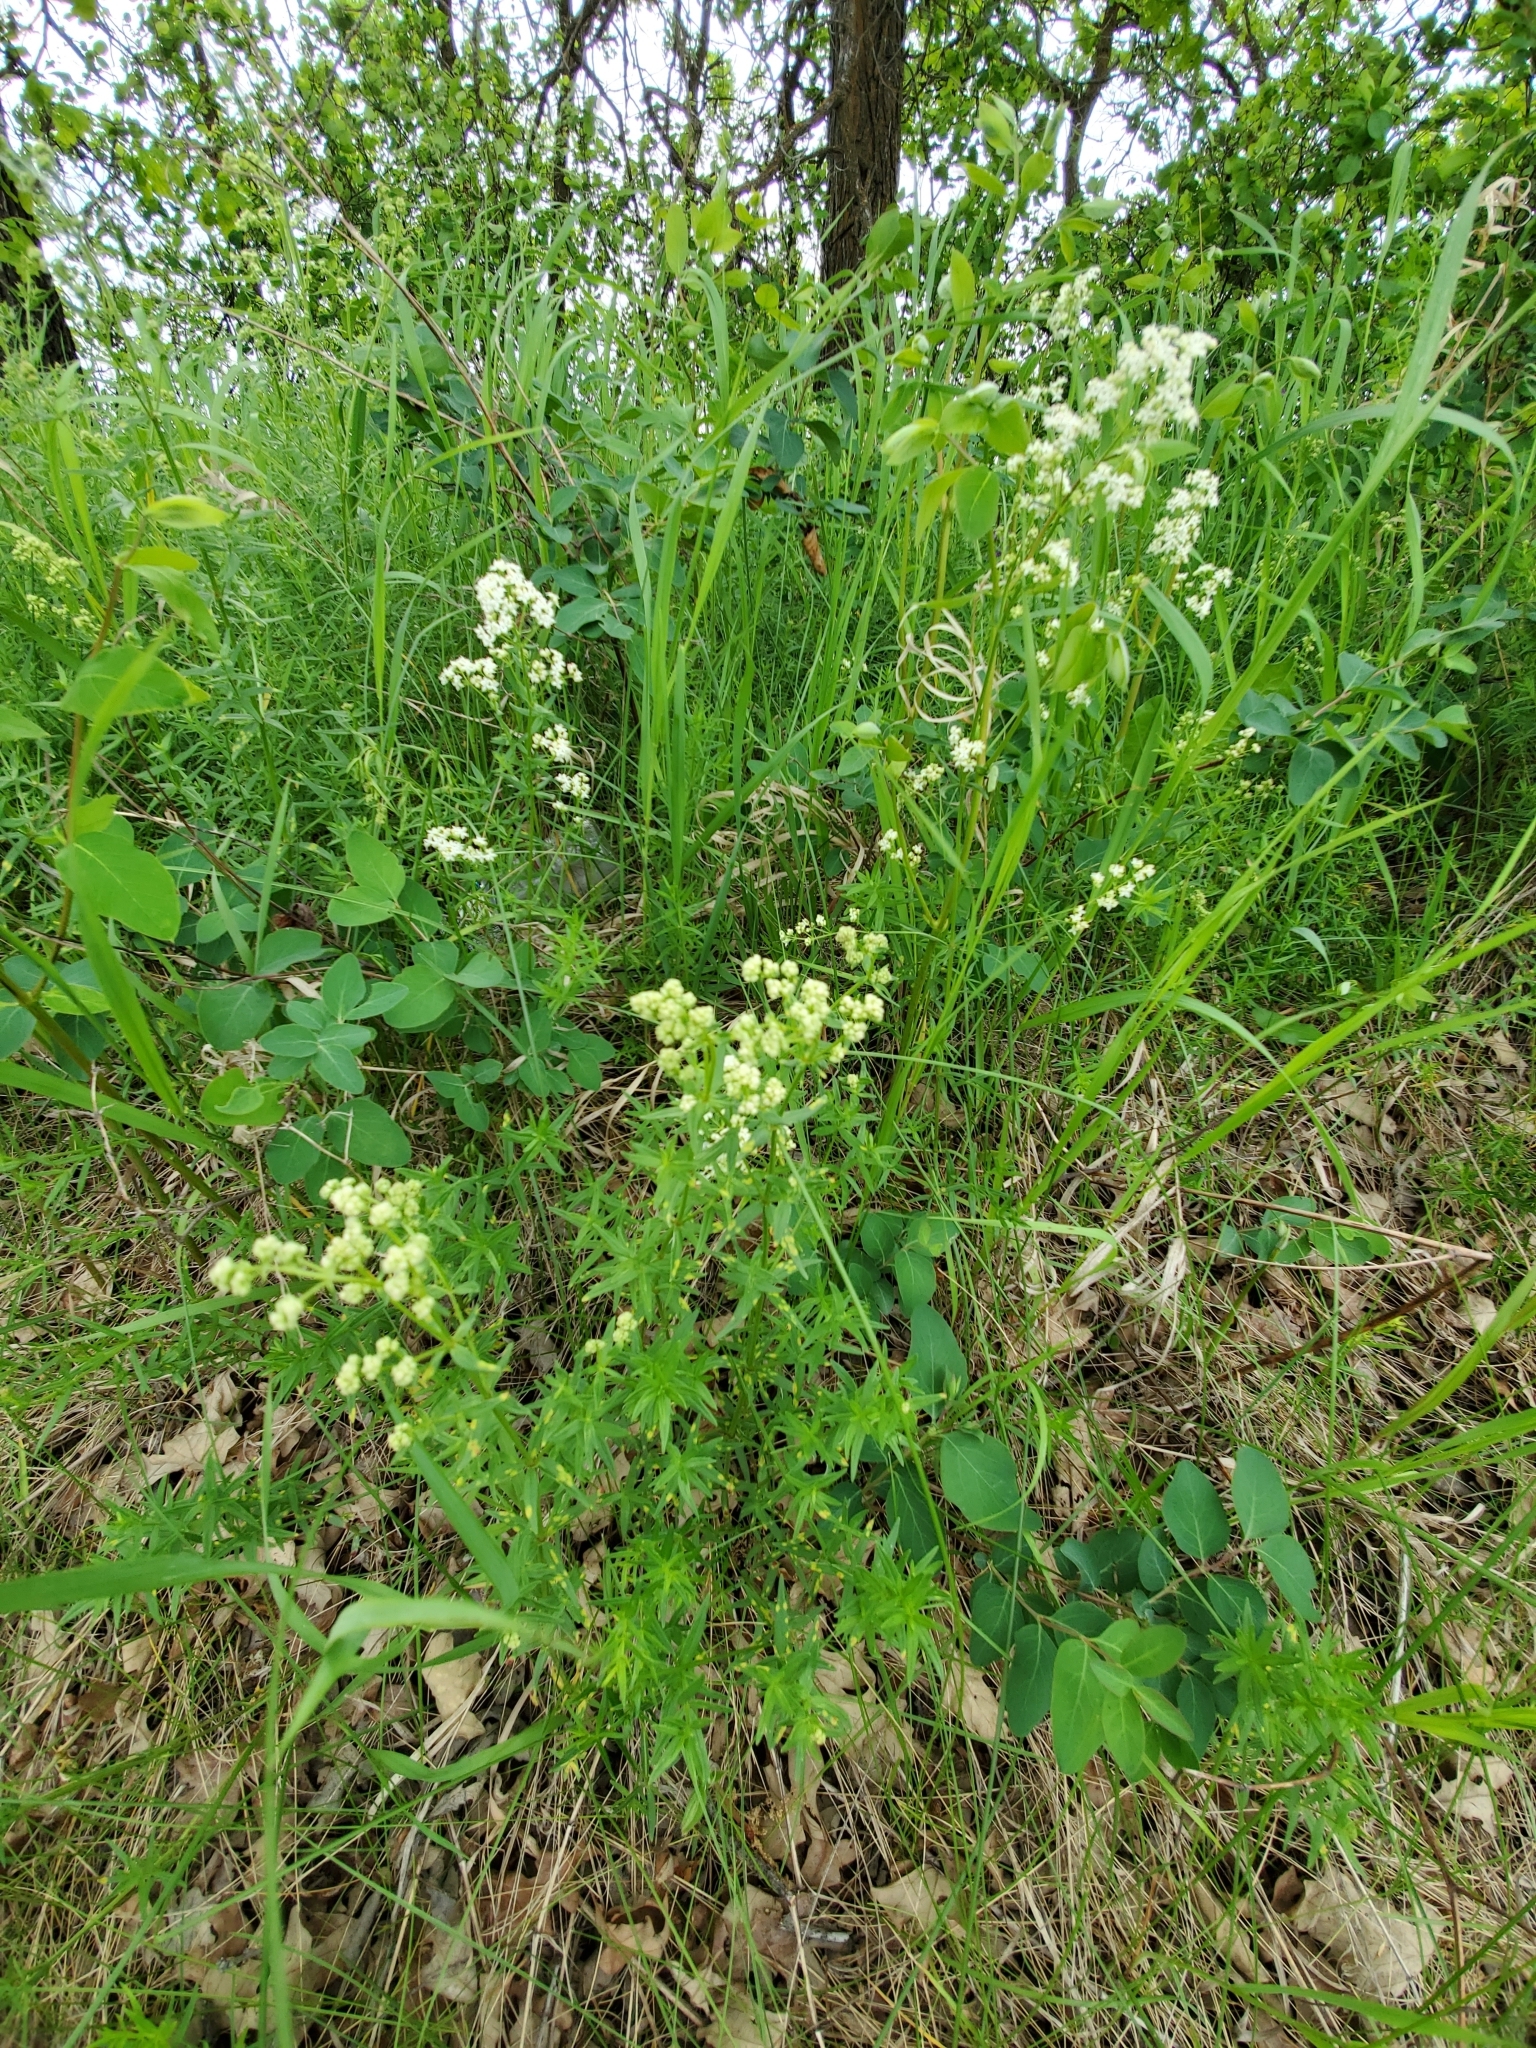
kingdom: Plantae
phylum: Tracheophyta
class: Magnoliopsida
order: Gentianales
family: Rubiaceae
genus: Galium
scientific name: Galium boreale
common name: Northern bedstraw
